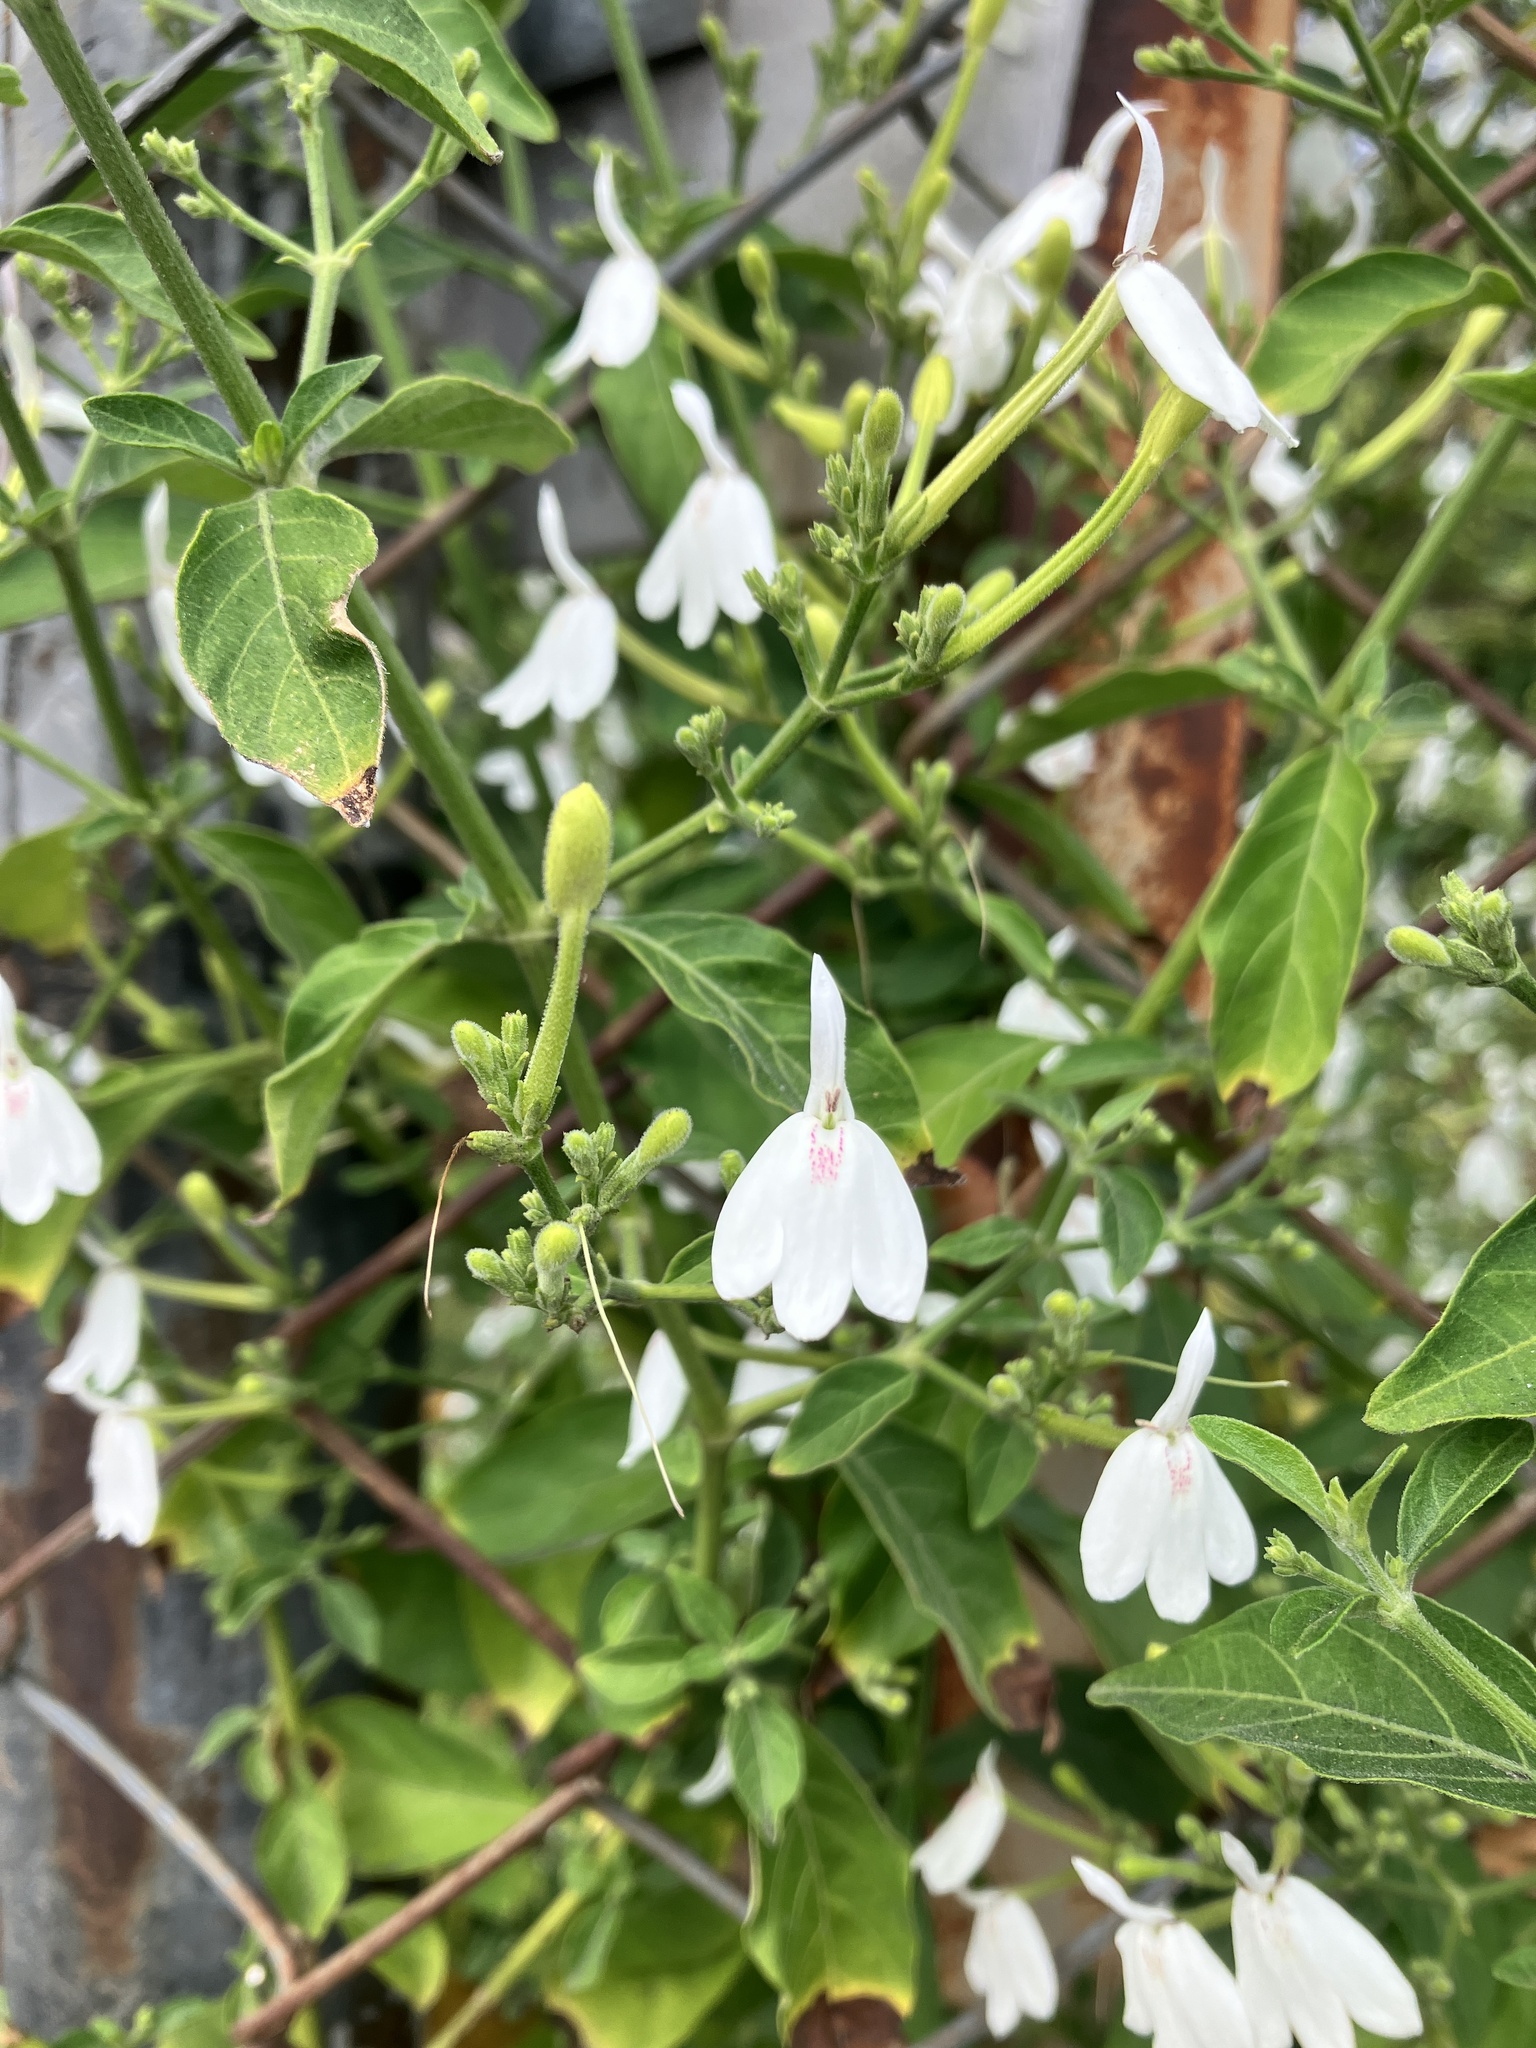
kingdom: Plantae
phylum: Tracheophyta
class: Magnoliopsida
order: Lamiales
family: Acanthaceae
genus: Rhinacanthus
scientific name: Rhinacanthus nasutus
